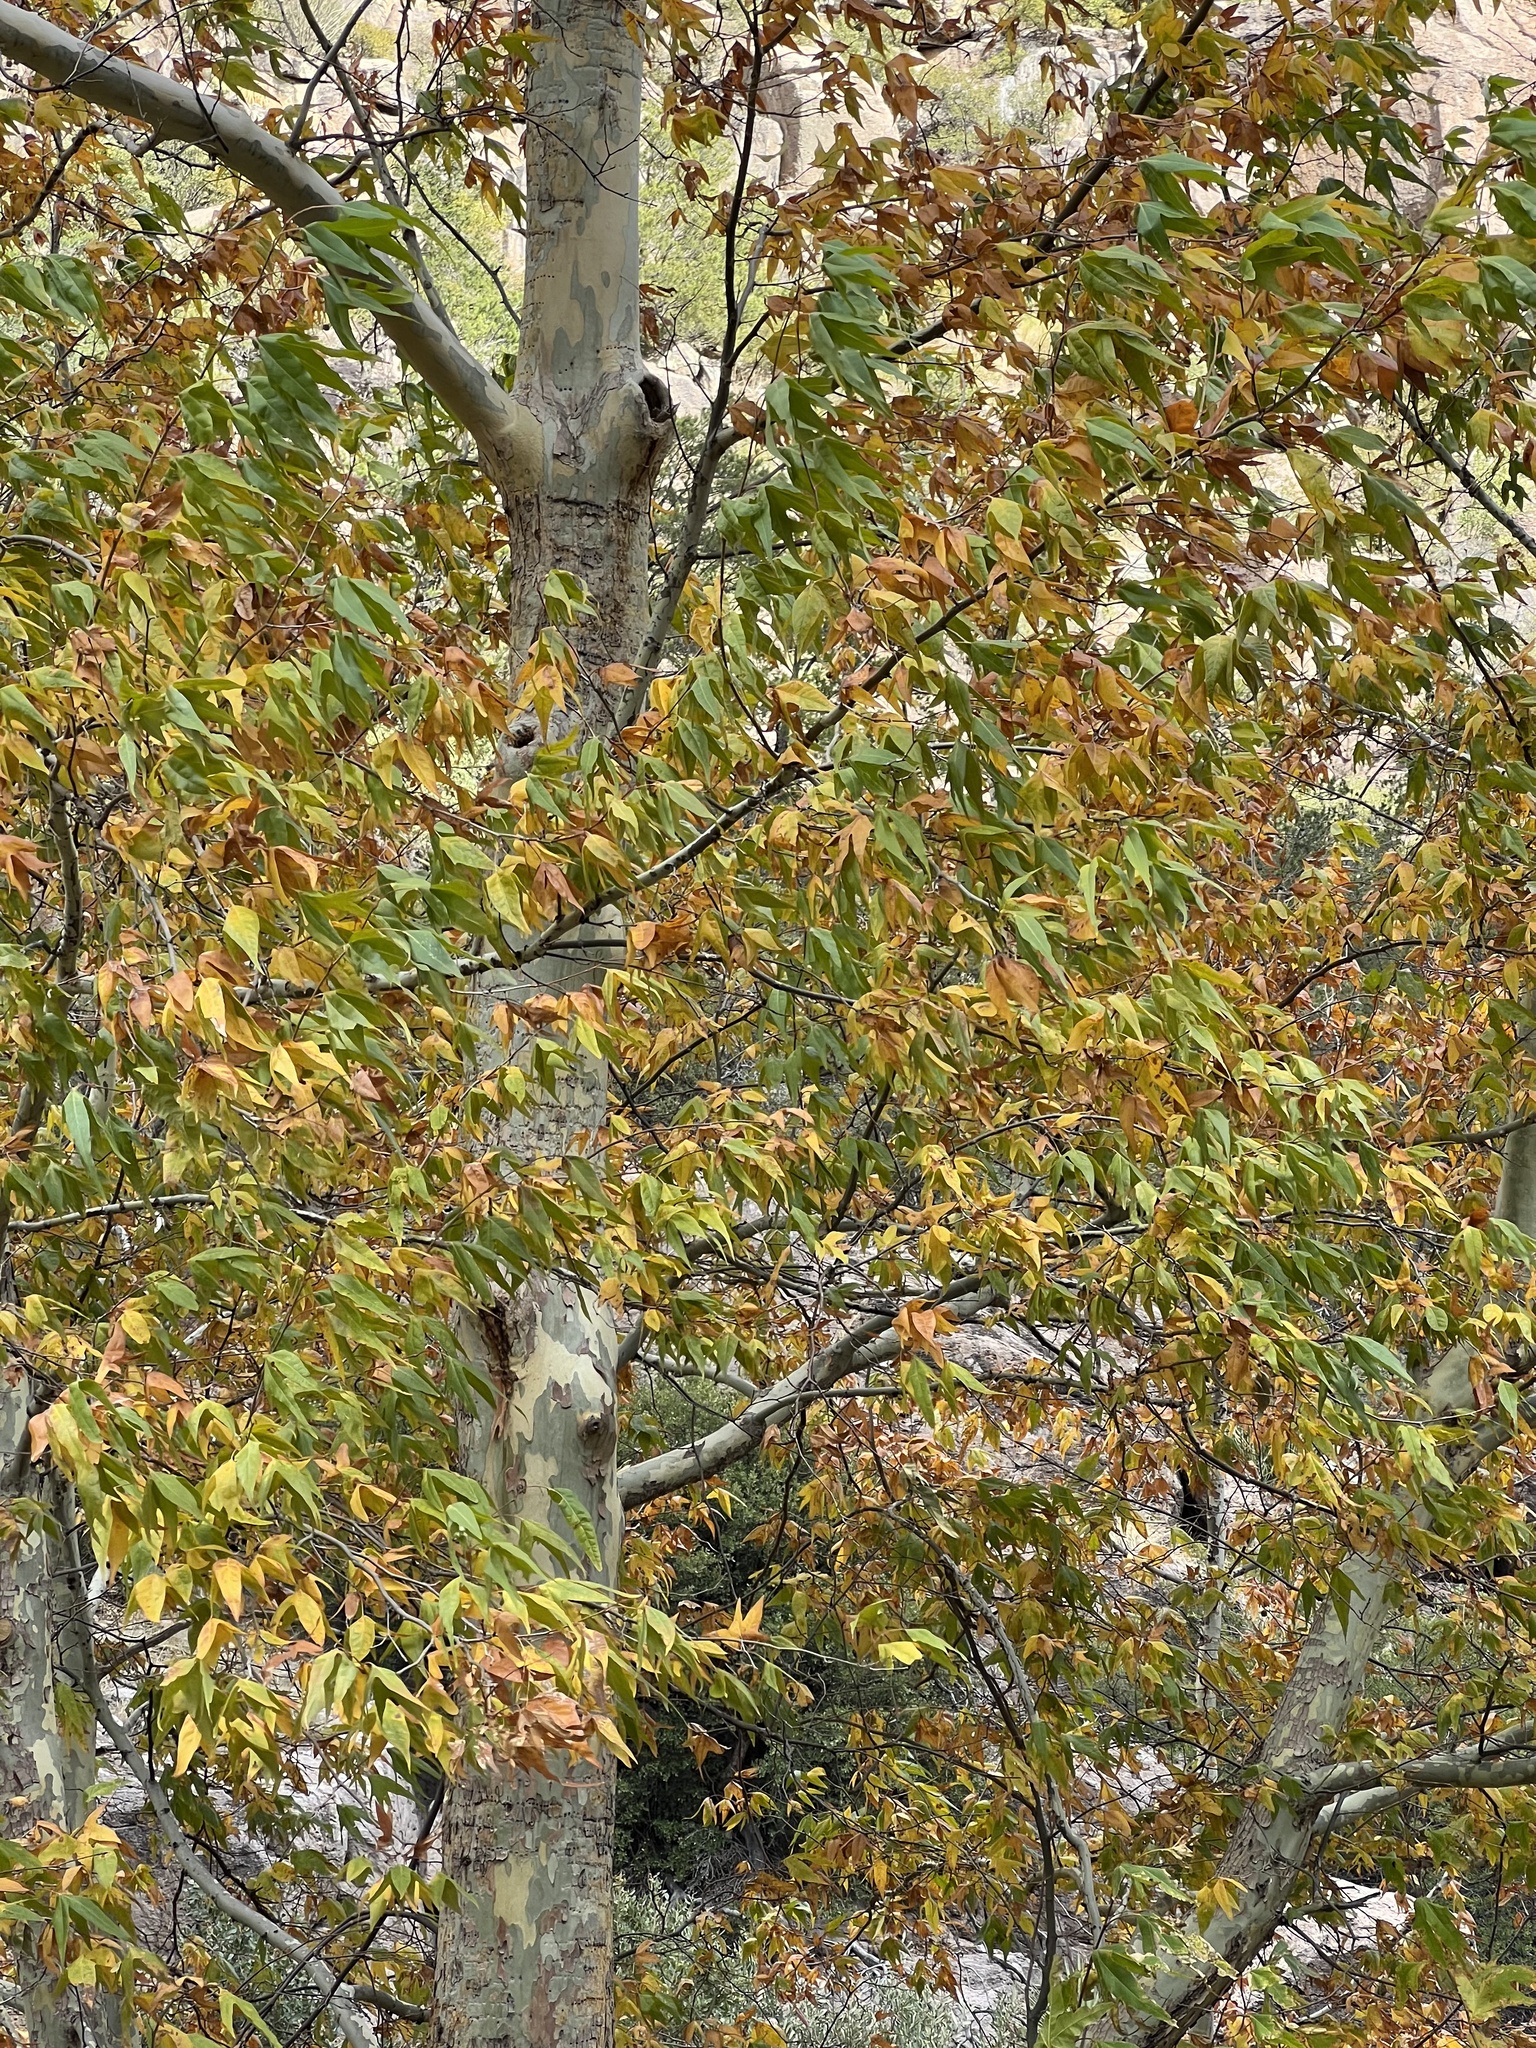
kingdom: Plantae
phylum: Tracheophyta
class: Magnoliopsida
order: Proteales
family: Platanaceae
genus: Platanus
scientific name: Platanus wrightii
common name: Arizona sycamore
